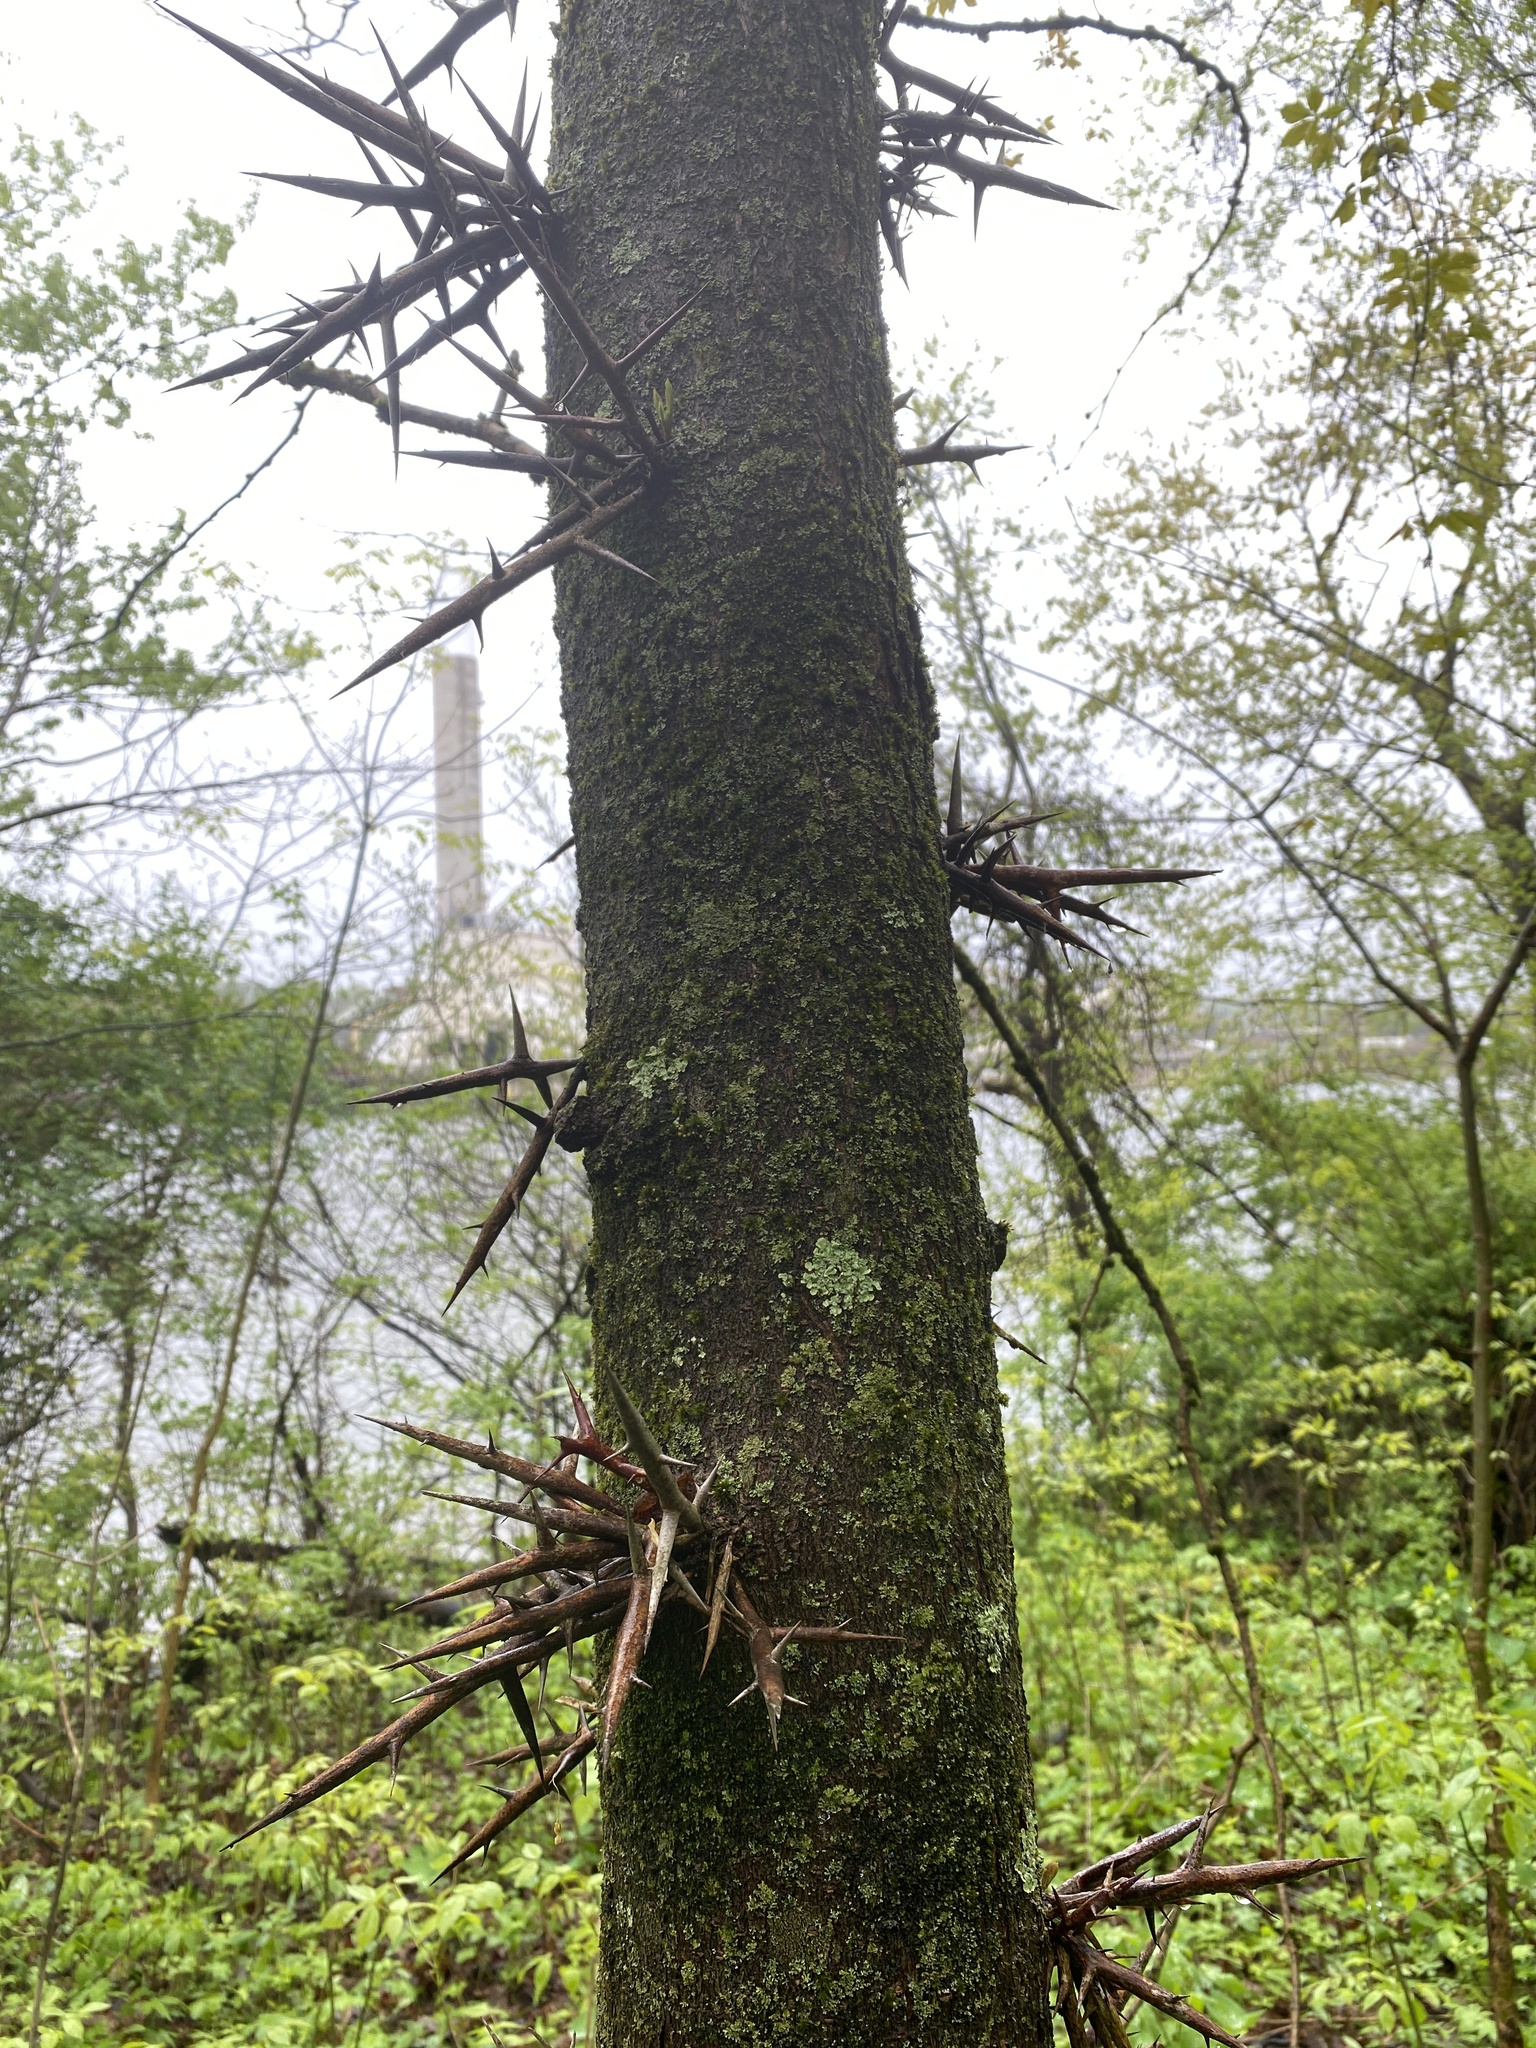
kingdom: Plantae
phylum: Tracheophyta
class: Magnoliopsida
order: Fabales
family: Fabaceae
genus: Gleditsia
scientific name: Gleditsia triacanthos
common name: Common honeylocust
